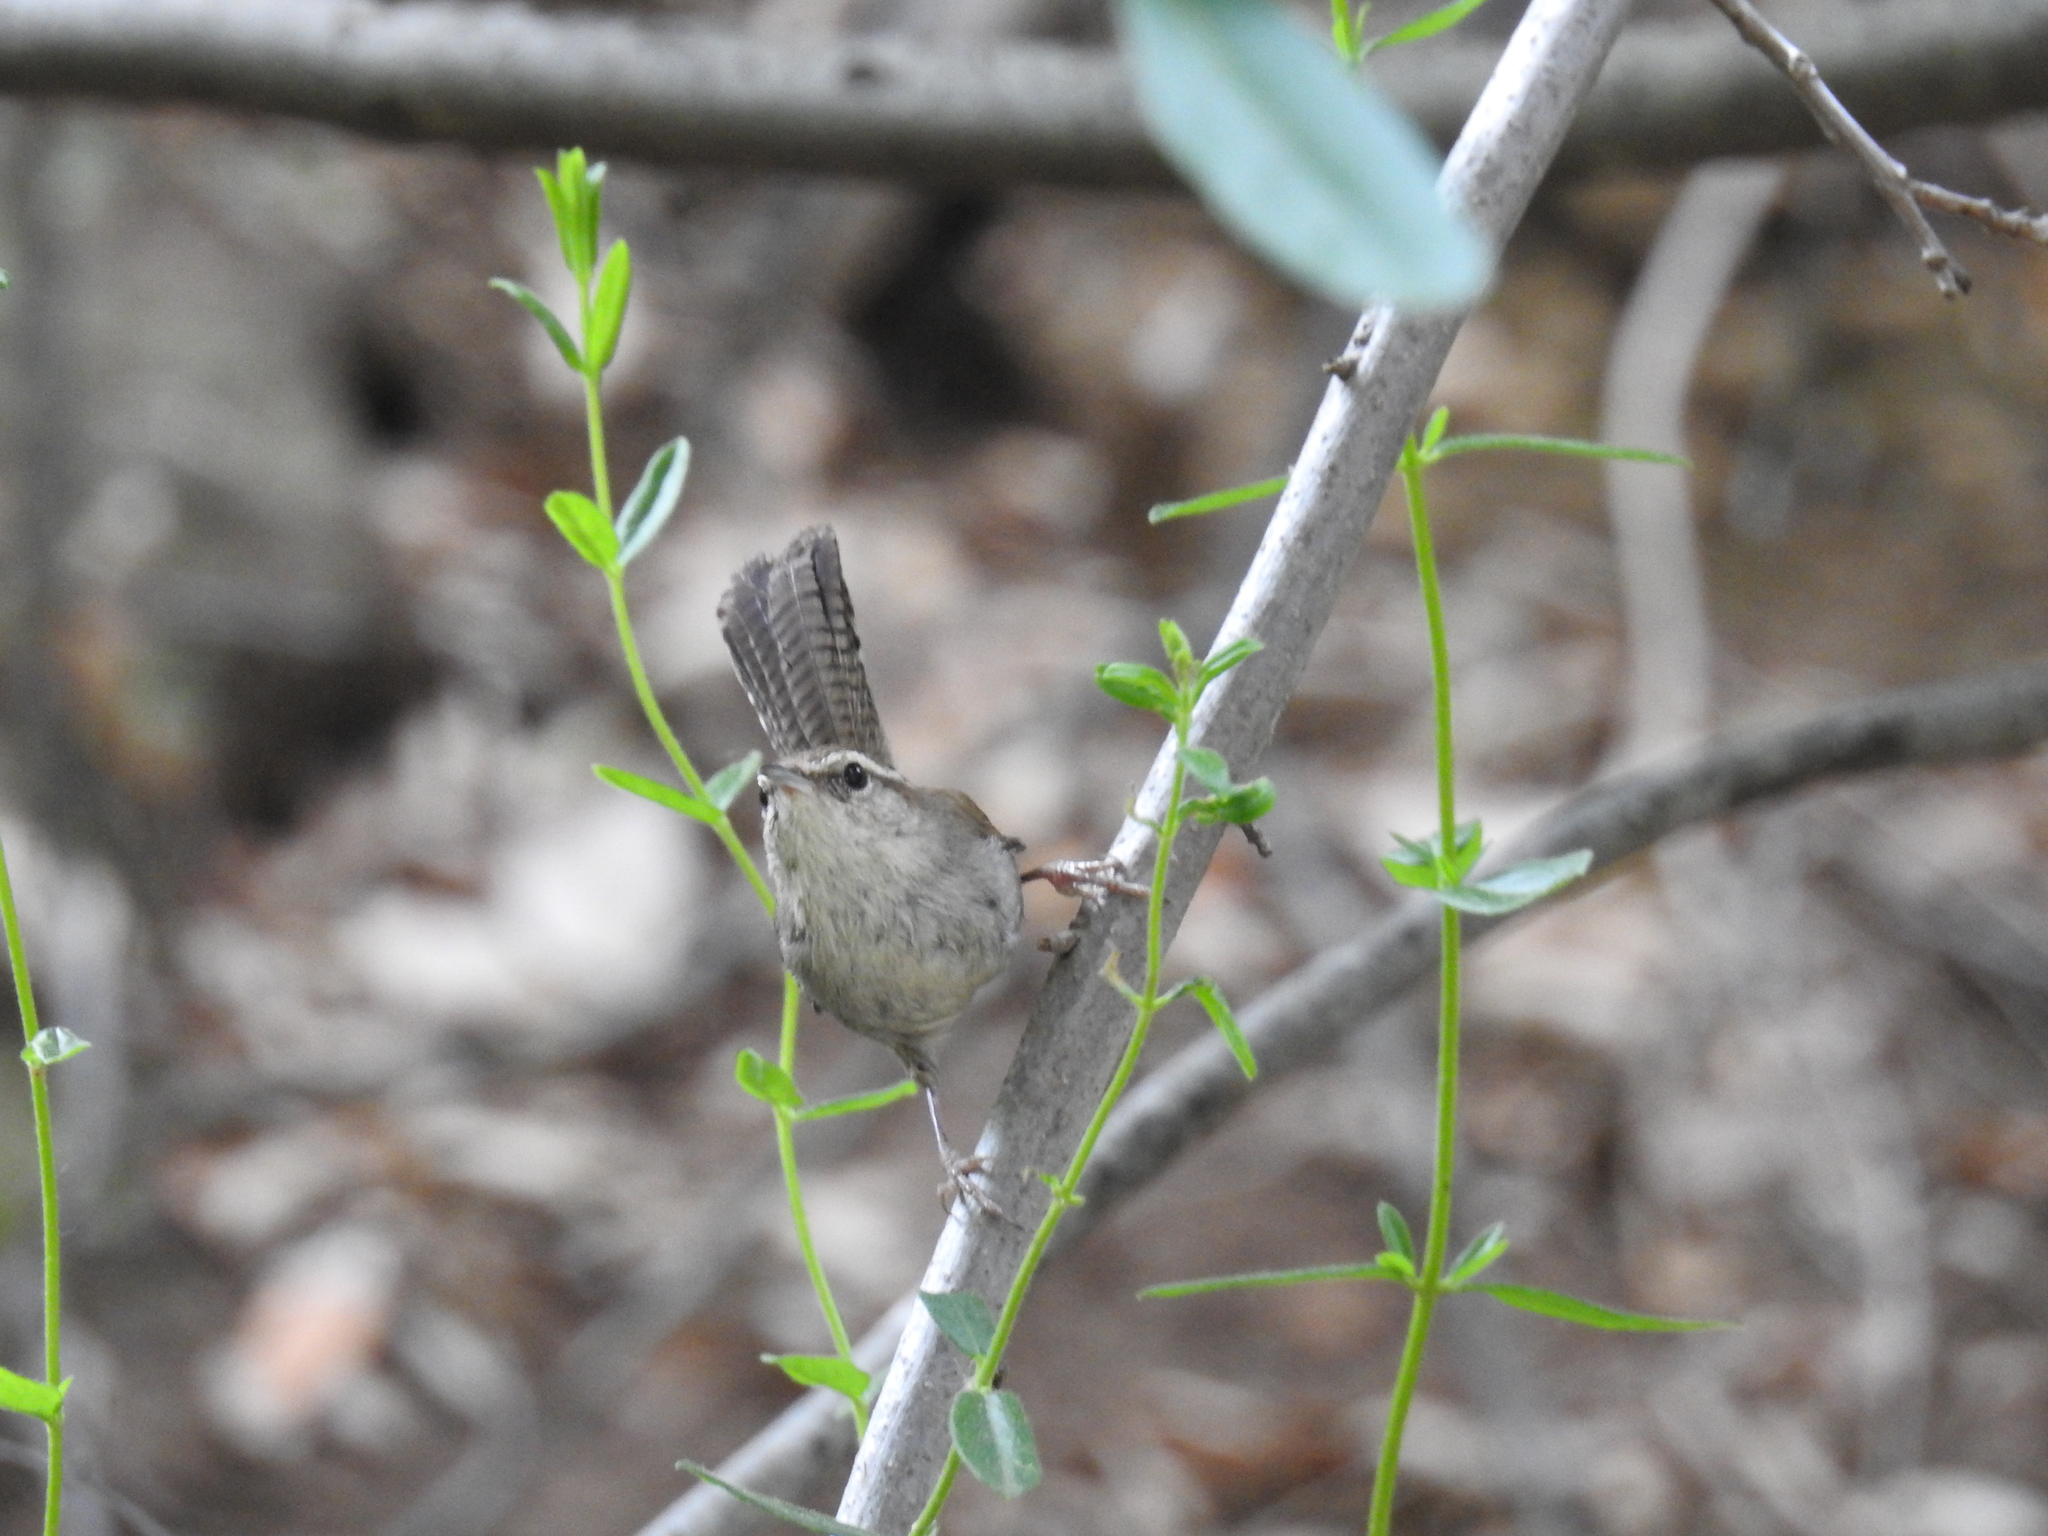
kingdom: Animalia
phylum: Chordata
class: Aves
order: Passeriformes
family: Troglodytidae
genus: Thryomanes
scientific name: Thryomanes bewickii
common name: Bewick's wren
